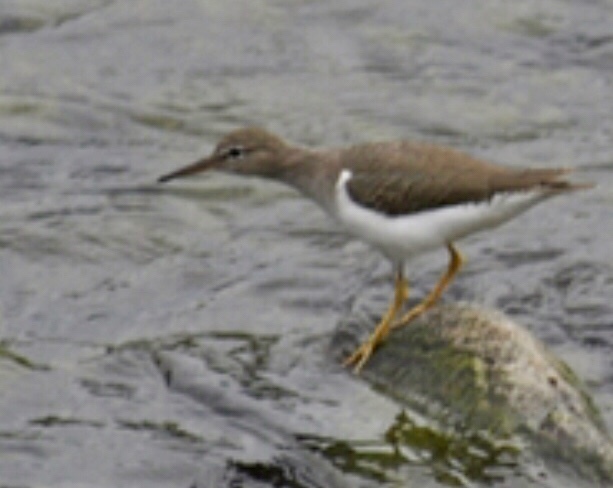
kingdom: Animalia
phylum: Chordata
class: Aves
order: Charadriiformes
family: Scolopacidae
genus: Actitis
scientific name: Actitis macularius
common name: Spotted sandpiper
